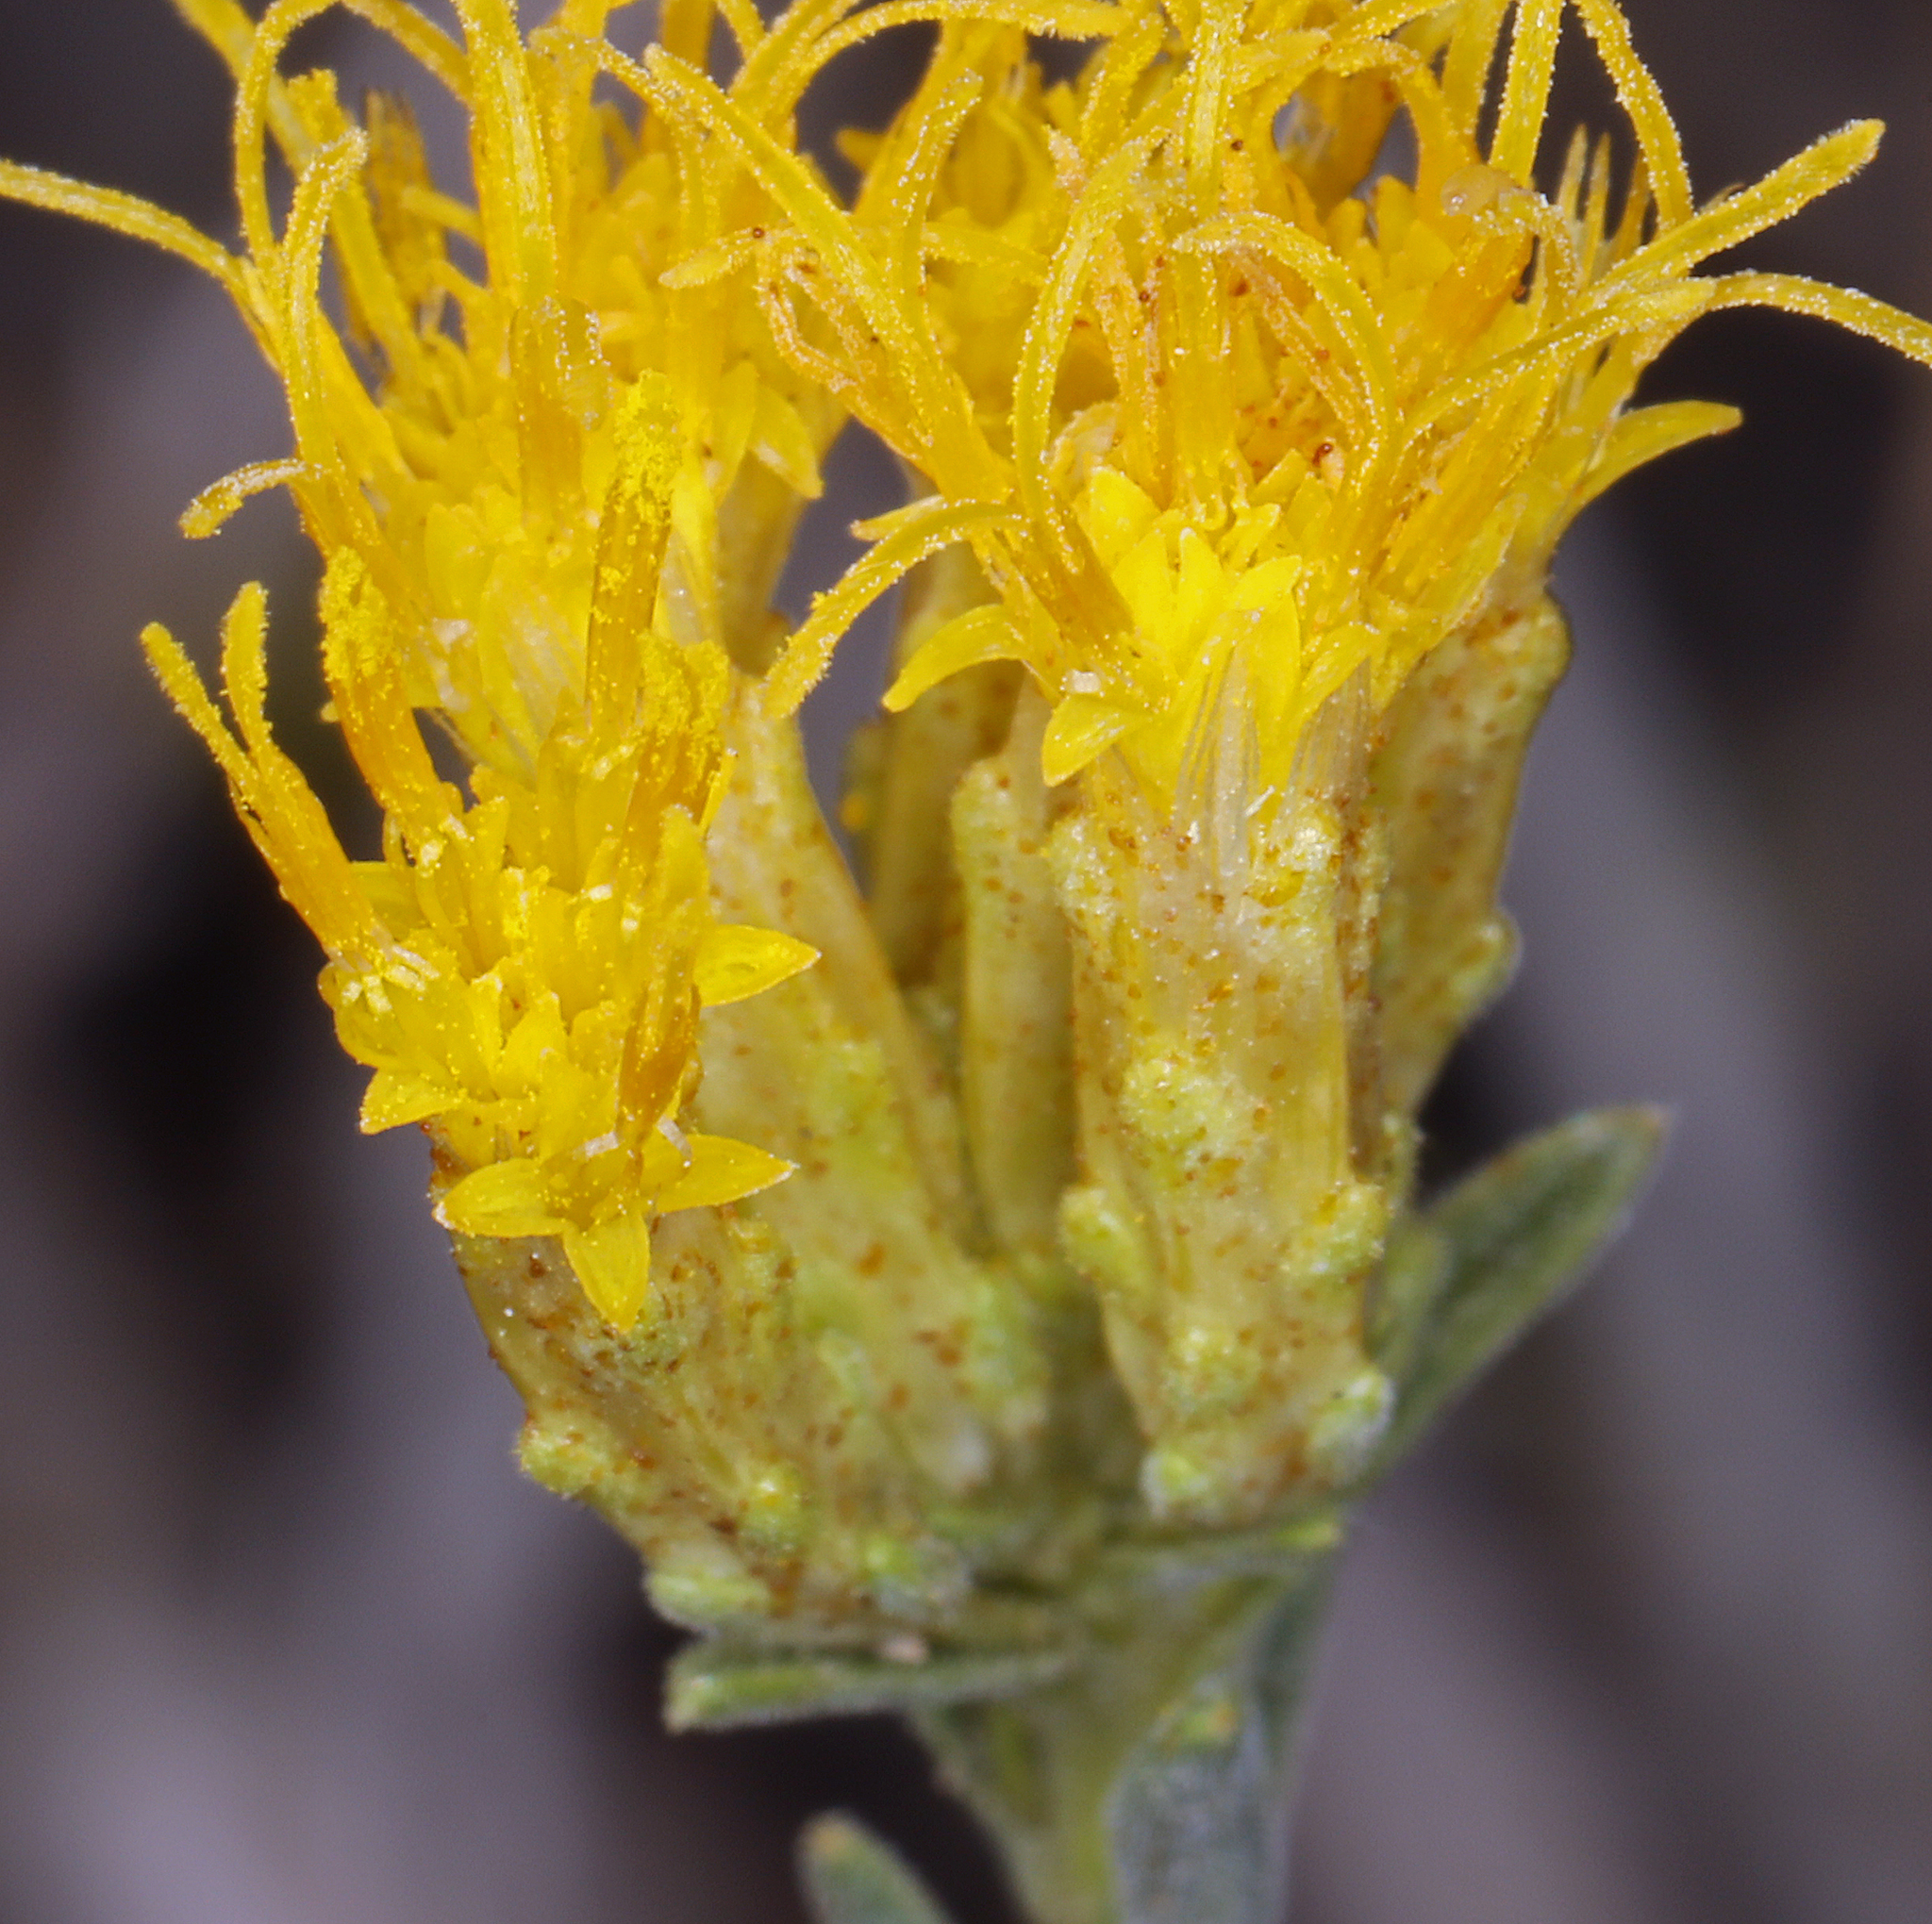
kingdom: Plantae
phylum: Tracheophyta
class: Magnoliopsida
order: Asterales
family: Asteraceae
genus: Chrysothamnus
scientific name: Chrysothamnus viscidiflorus
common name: Yellow rabbitbrush
